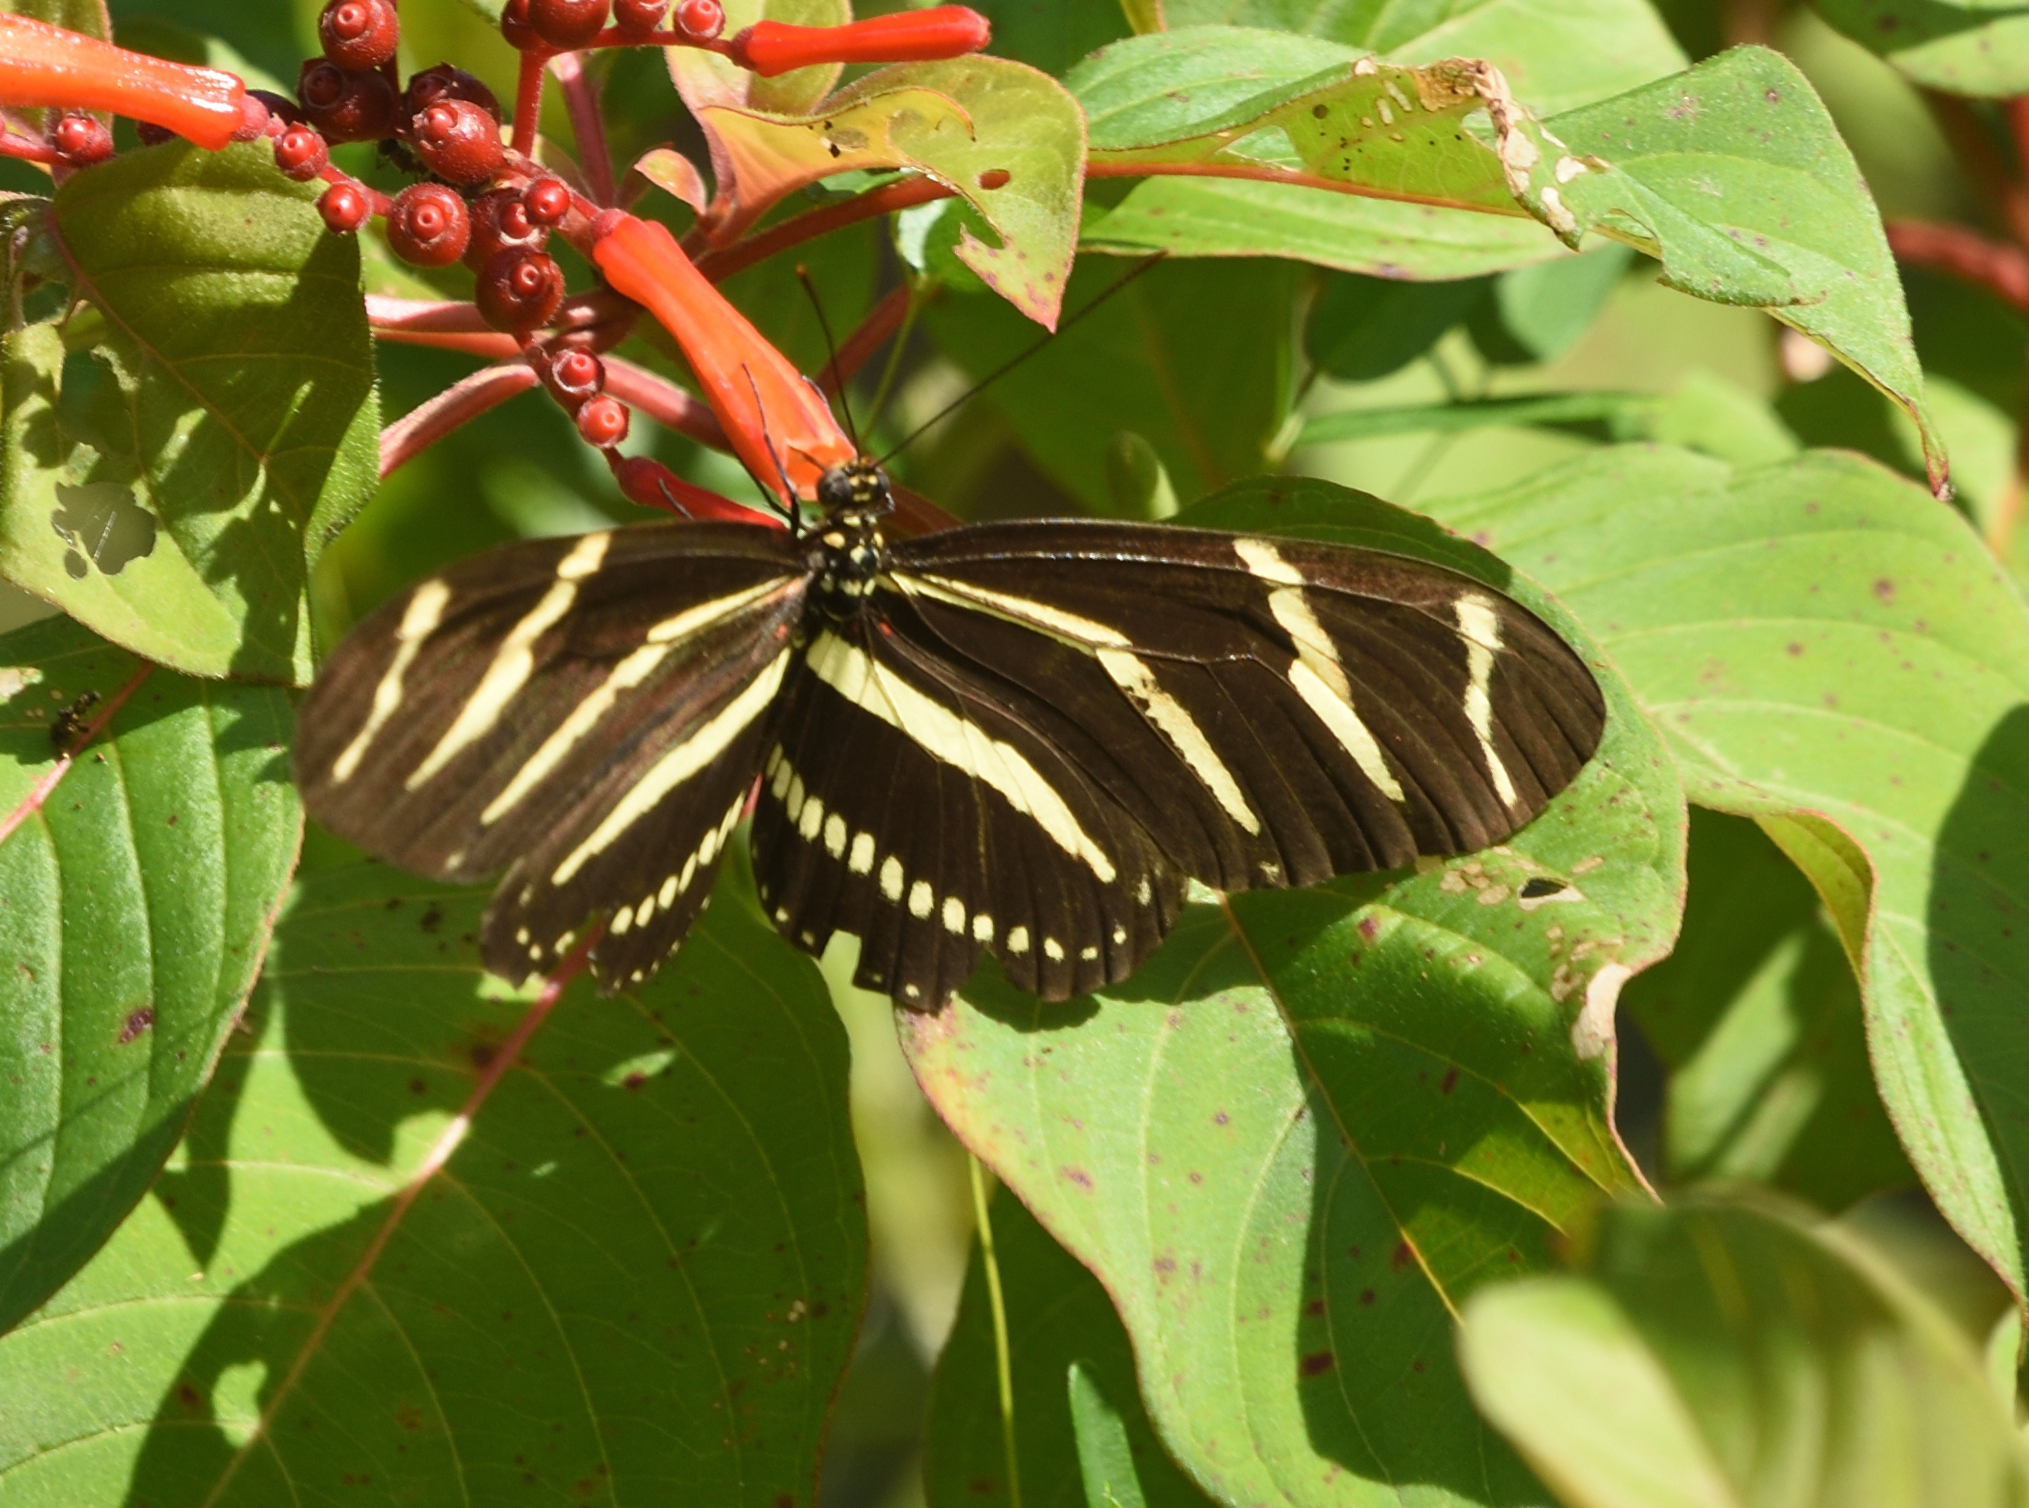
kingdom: Animalia
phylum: Arthropoda
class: Insecta
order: Lepidoptera
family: Nymphalidae
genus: Heliconius
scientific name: Heliconius charithonia
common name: Zebra long wing
